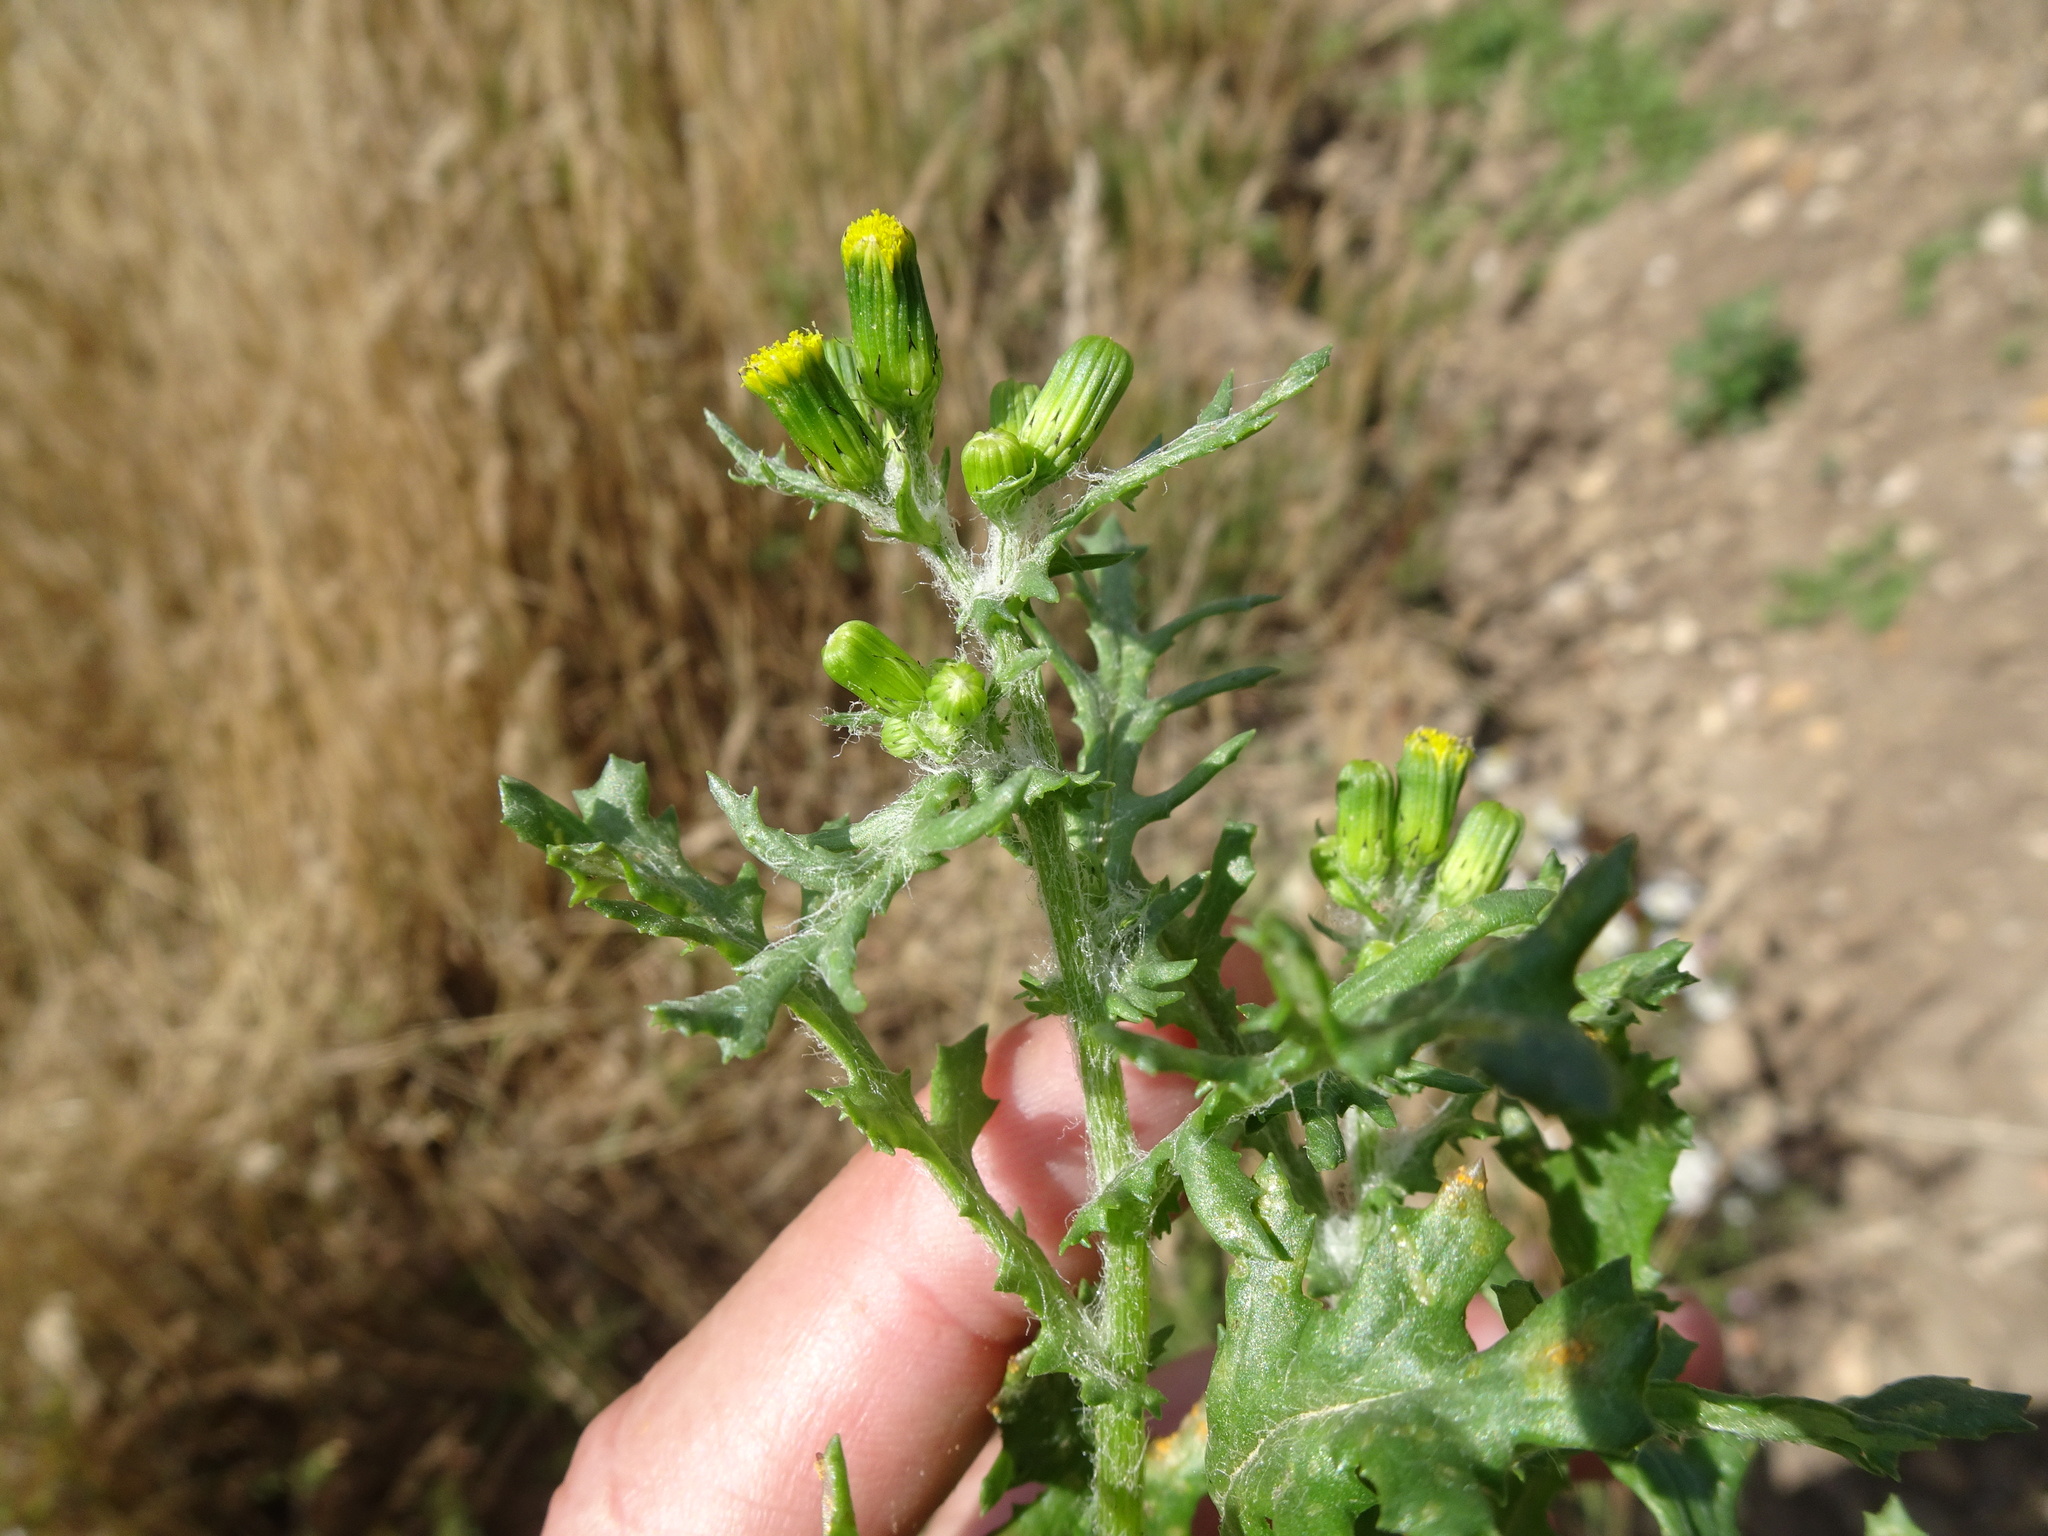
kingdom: Plantae
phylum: Tracheophyta
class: Magnoliopsida
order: Asterales
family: Asteraceae
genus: Senecio
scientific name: Senecio vulgaris
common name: Old-man-in-the-spring
